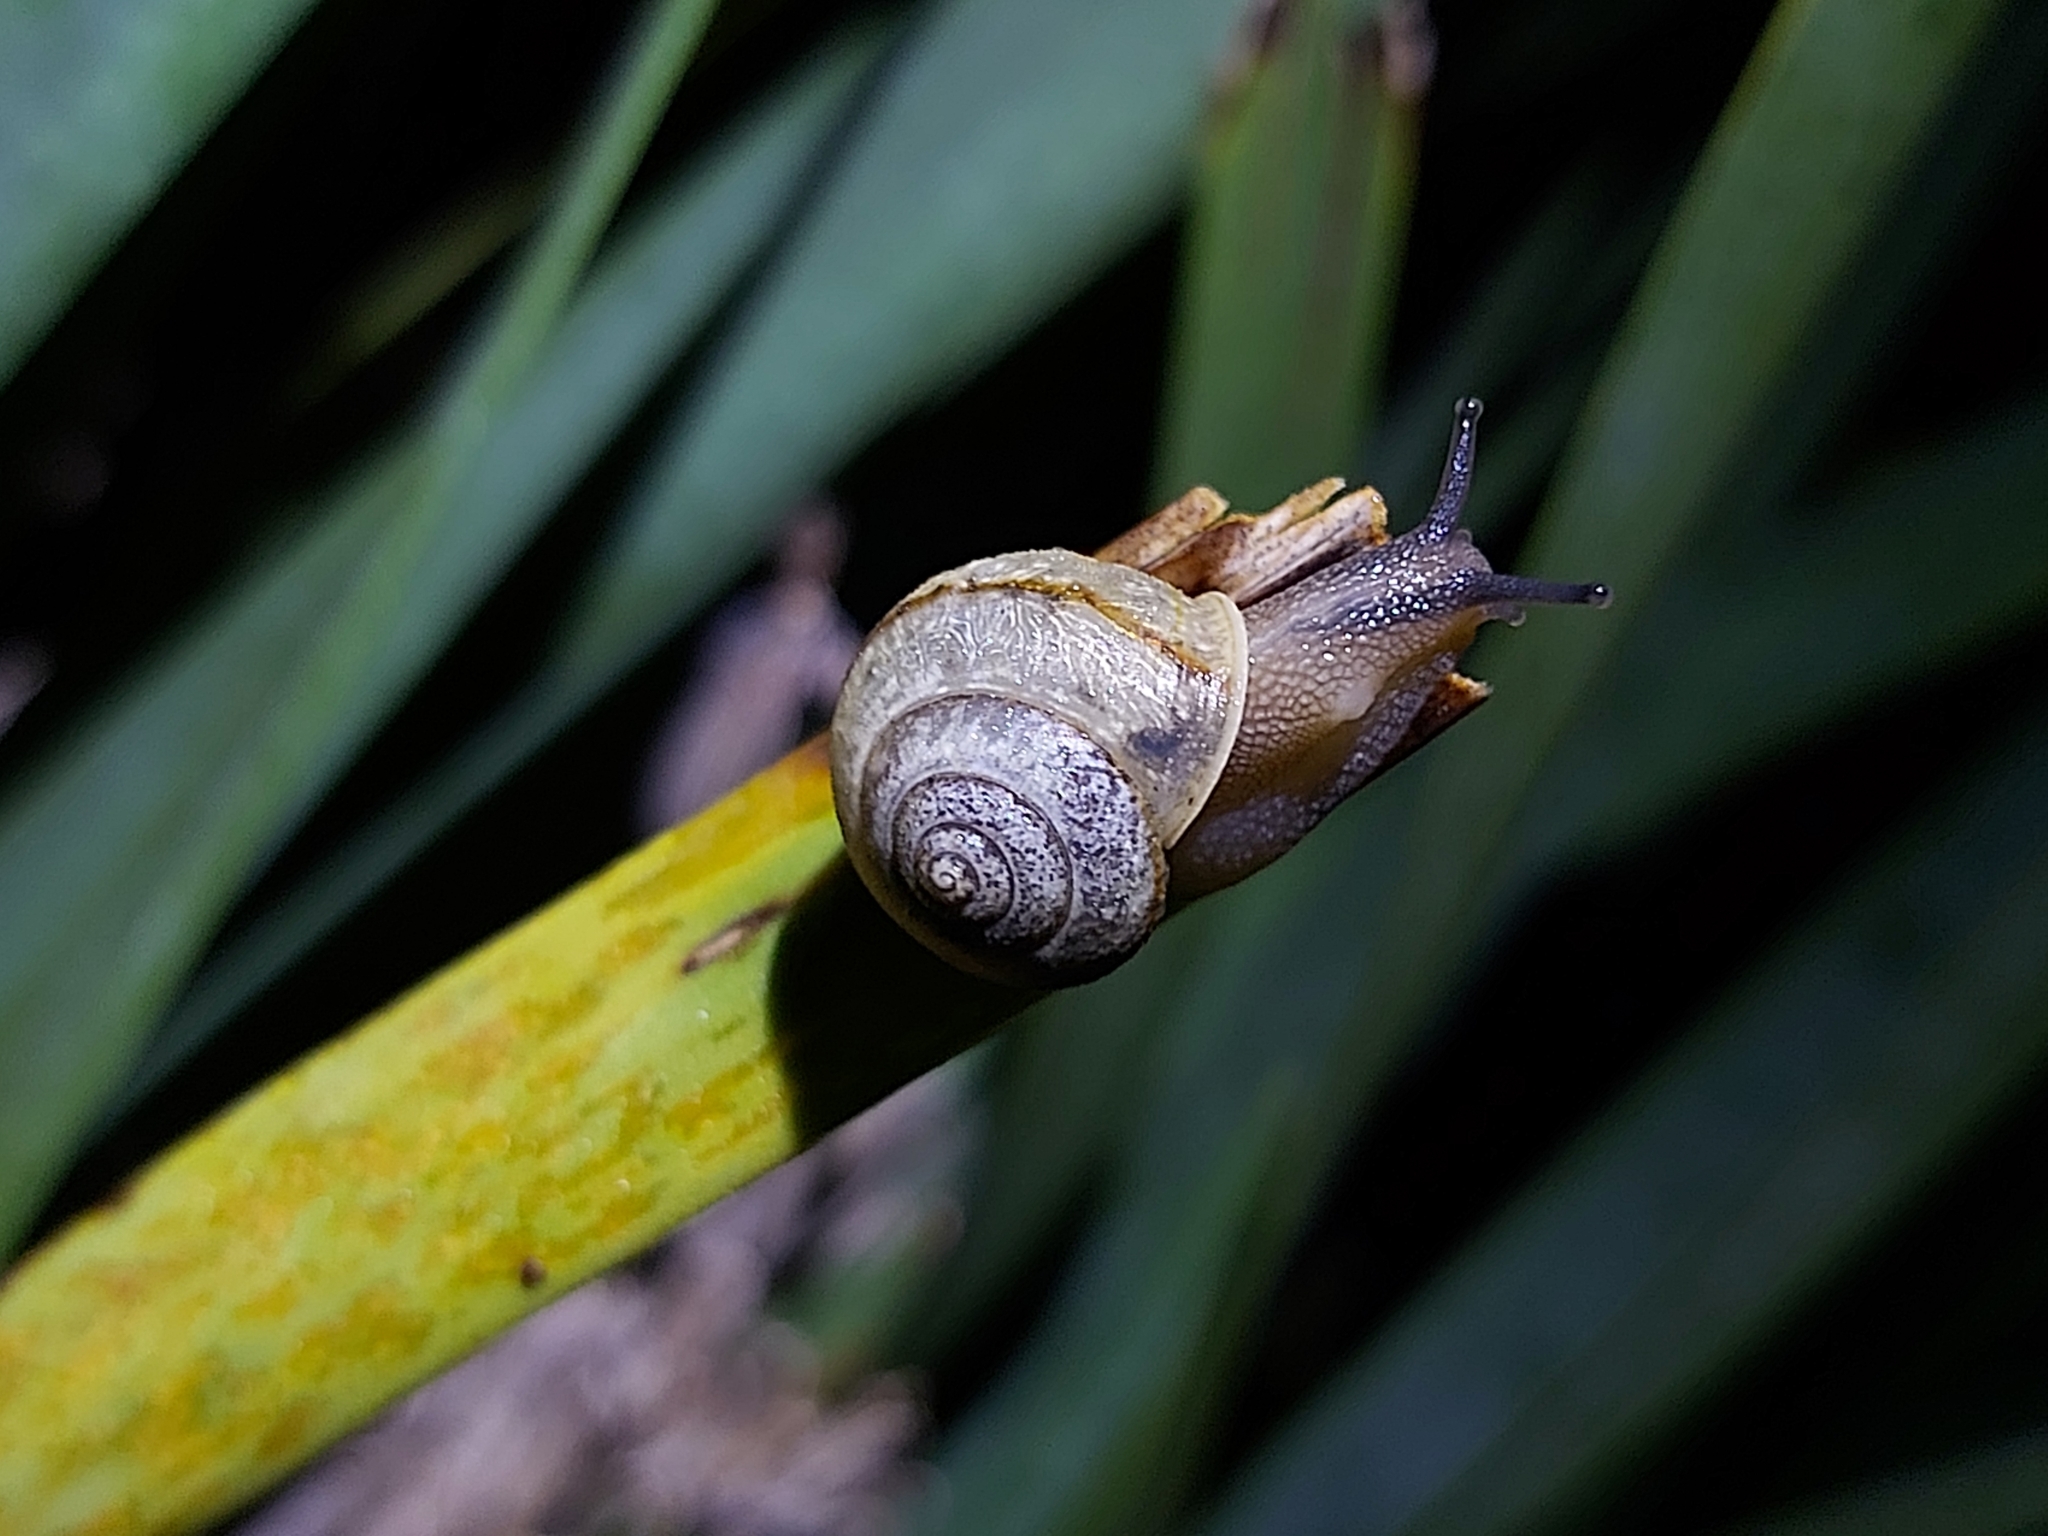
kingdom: Animalia
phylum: Mollusca
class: Gastropoda
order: Stylommatophora
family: Camaenidae
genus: Bradybaena
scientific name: Bradybaena similaris
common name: Asian trampsnail
